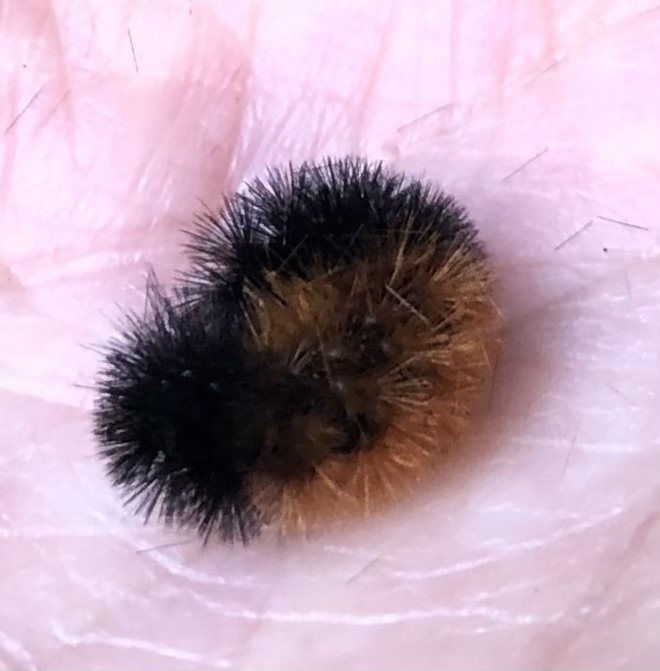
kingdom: Animalia
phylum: Arthropoda
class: Insecta
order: Lepidoptera
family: Erebidae
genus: Pyrrharctia
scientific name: Pyrrharctia isabella
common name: Isabella tiger moth
